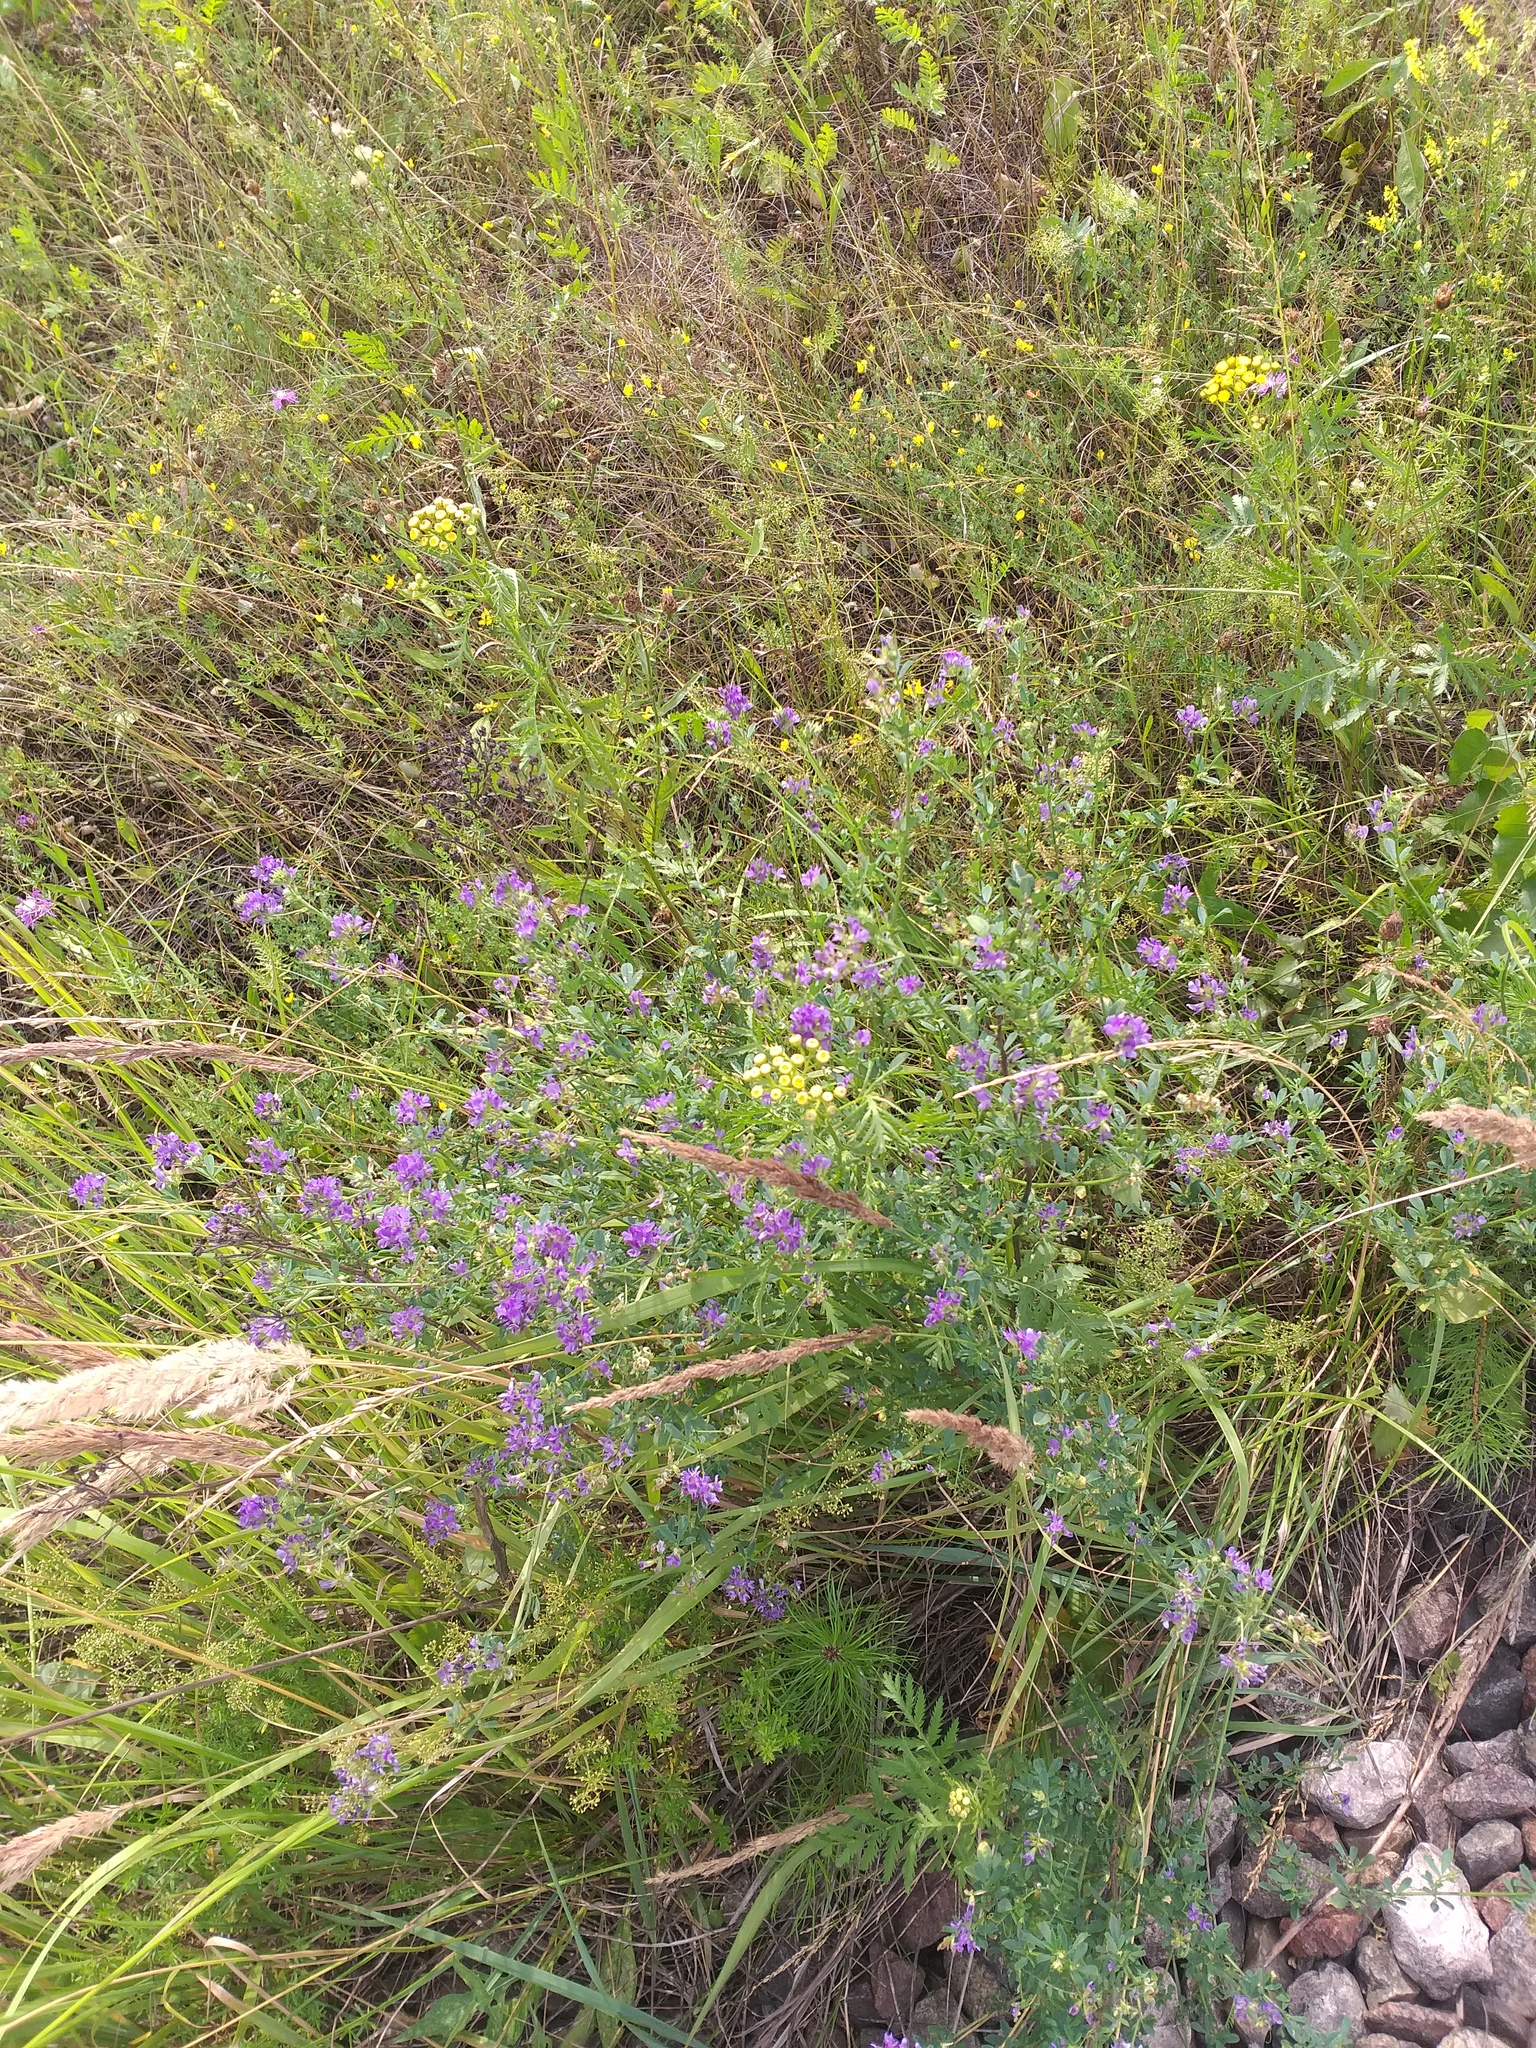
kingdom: Plantae
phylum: Tracheophyta
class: Magnoliopsida
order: Fabales
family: Fabaceae
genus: Medicago
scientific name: Medicago sativa
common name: Alfalfa
